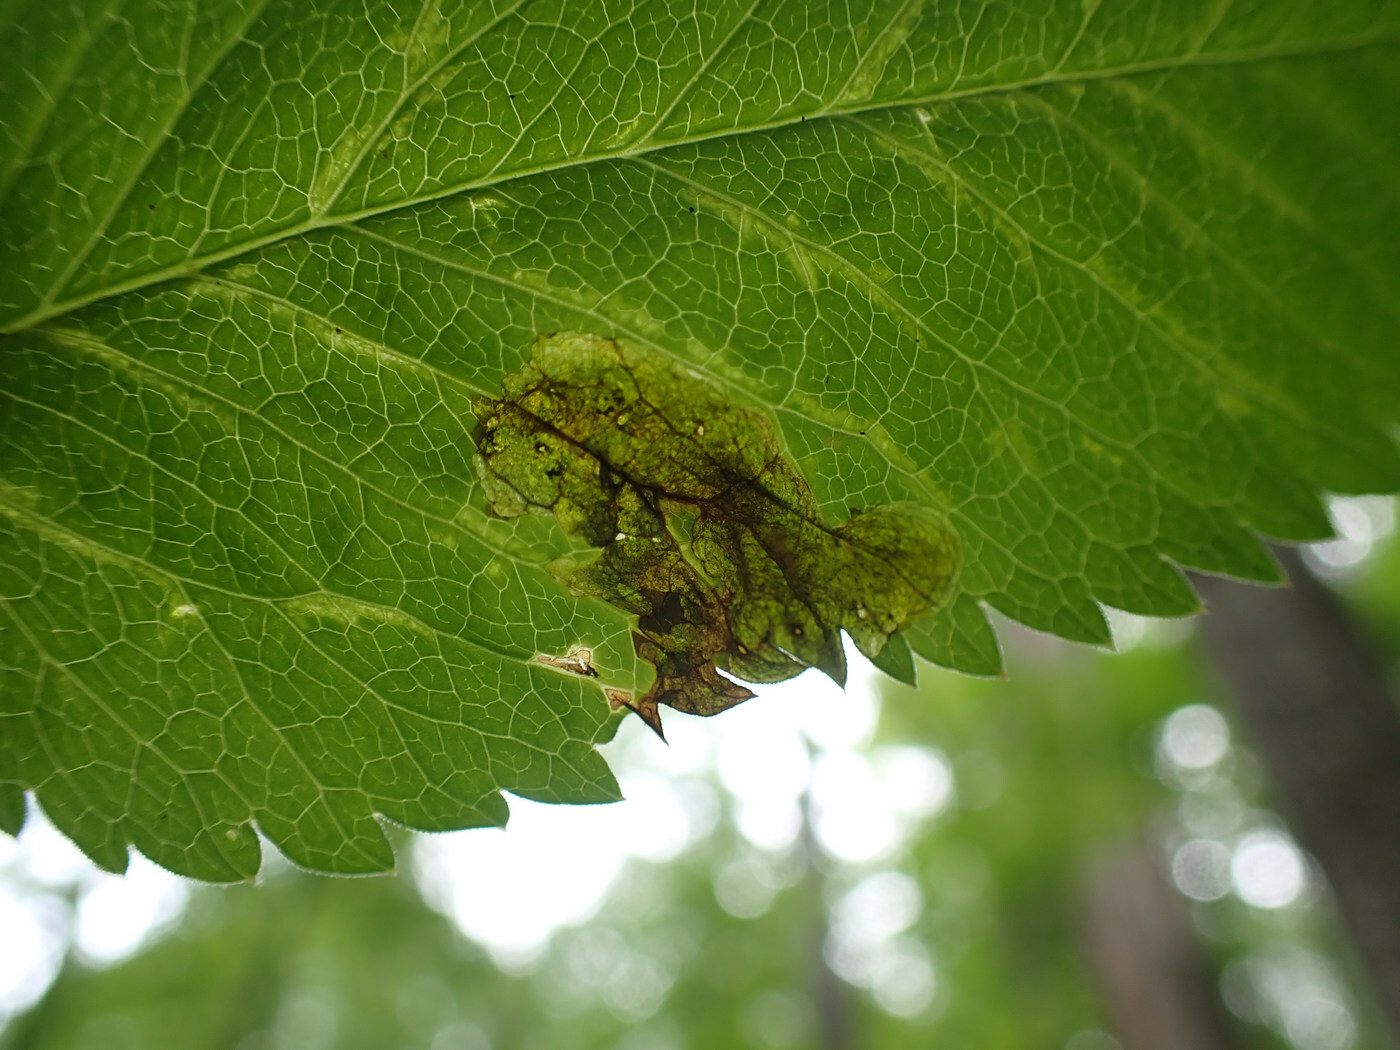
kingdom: Animalia
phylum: Arthropoda
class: Insecta
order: Diptera
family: Tephritidae
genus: Euleia
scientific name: Euleia fratria
